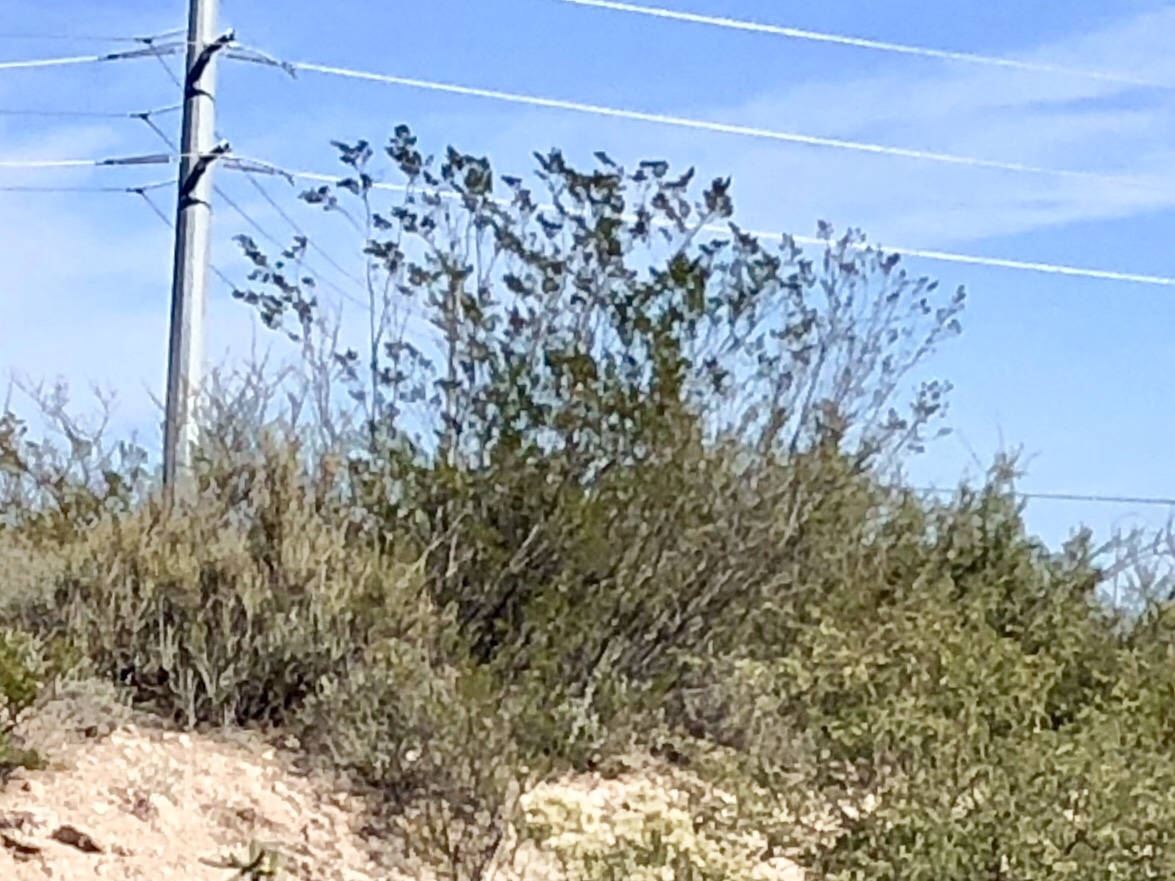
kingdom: Plantae
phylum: Tracheophyta
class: Magnoliopsida
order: Zygophyllales
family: Zygophyllaceae
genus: Larrea
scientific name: Larrea tridentata
